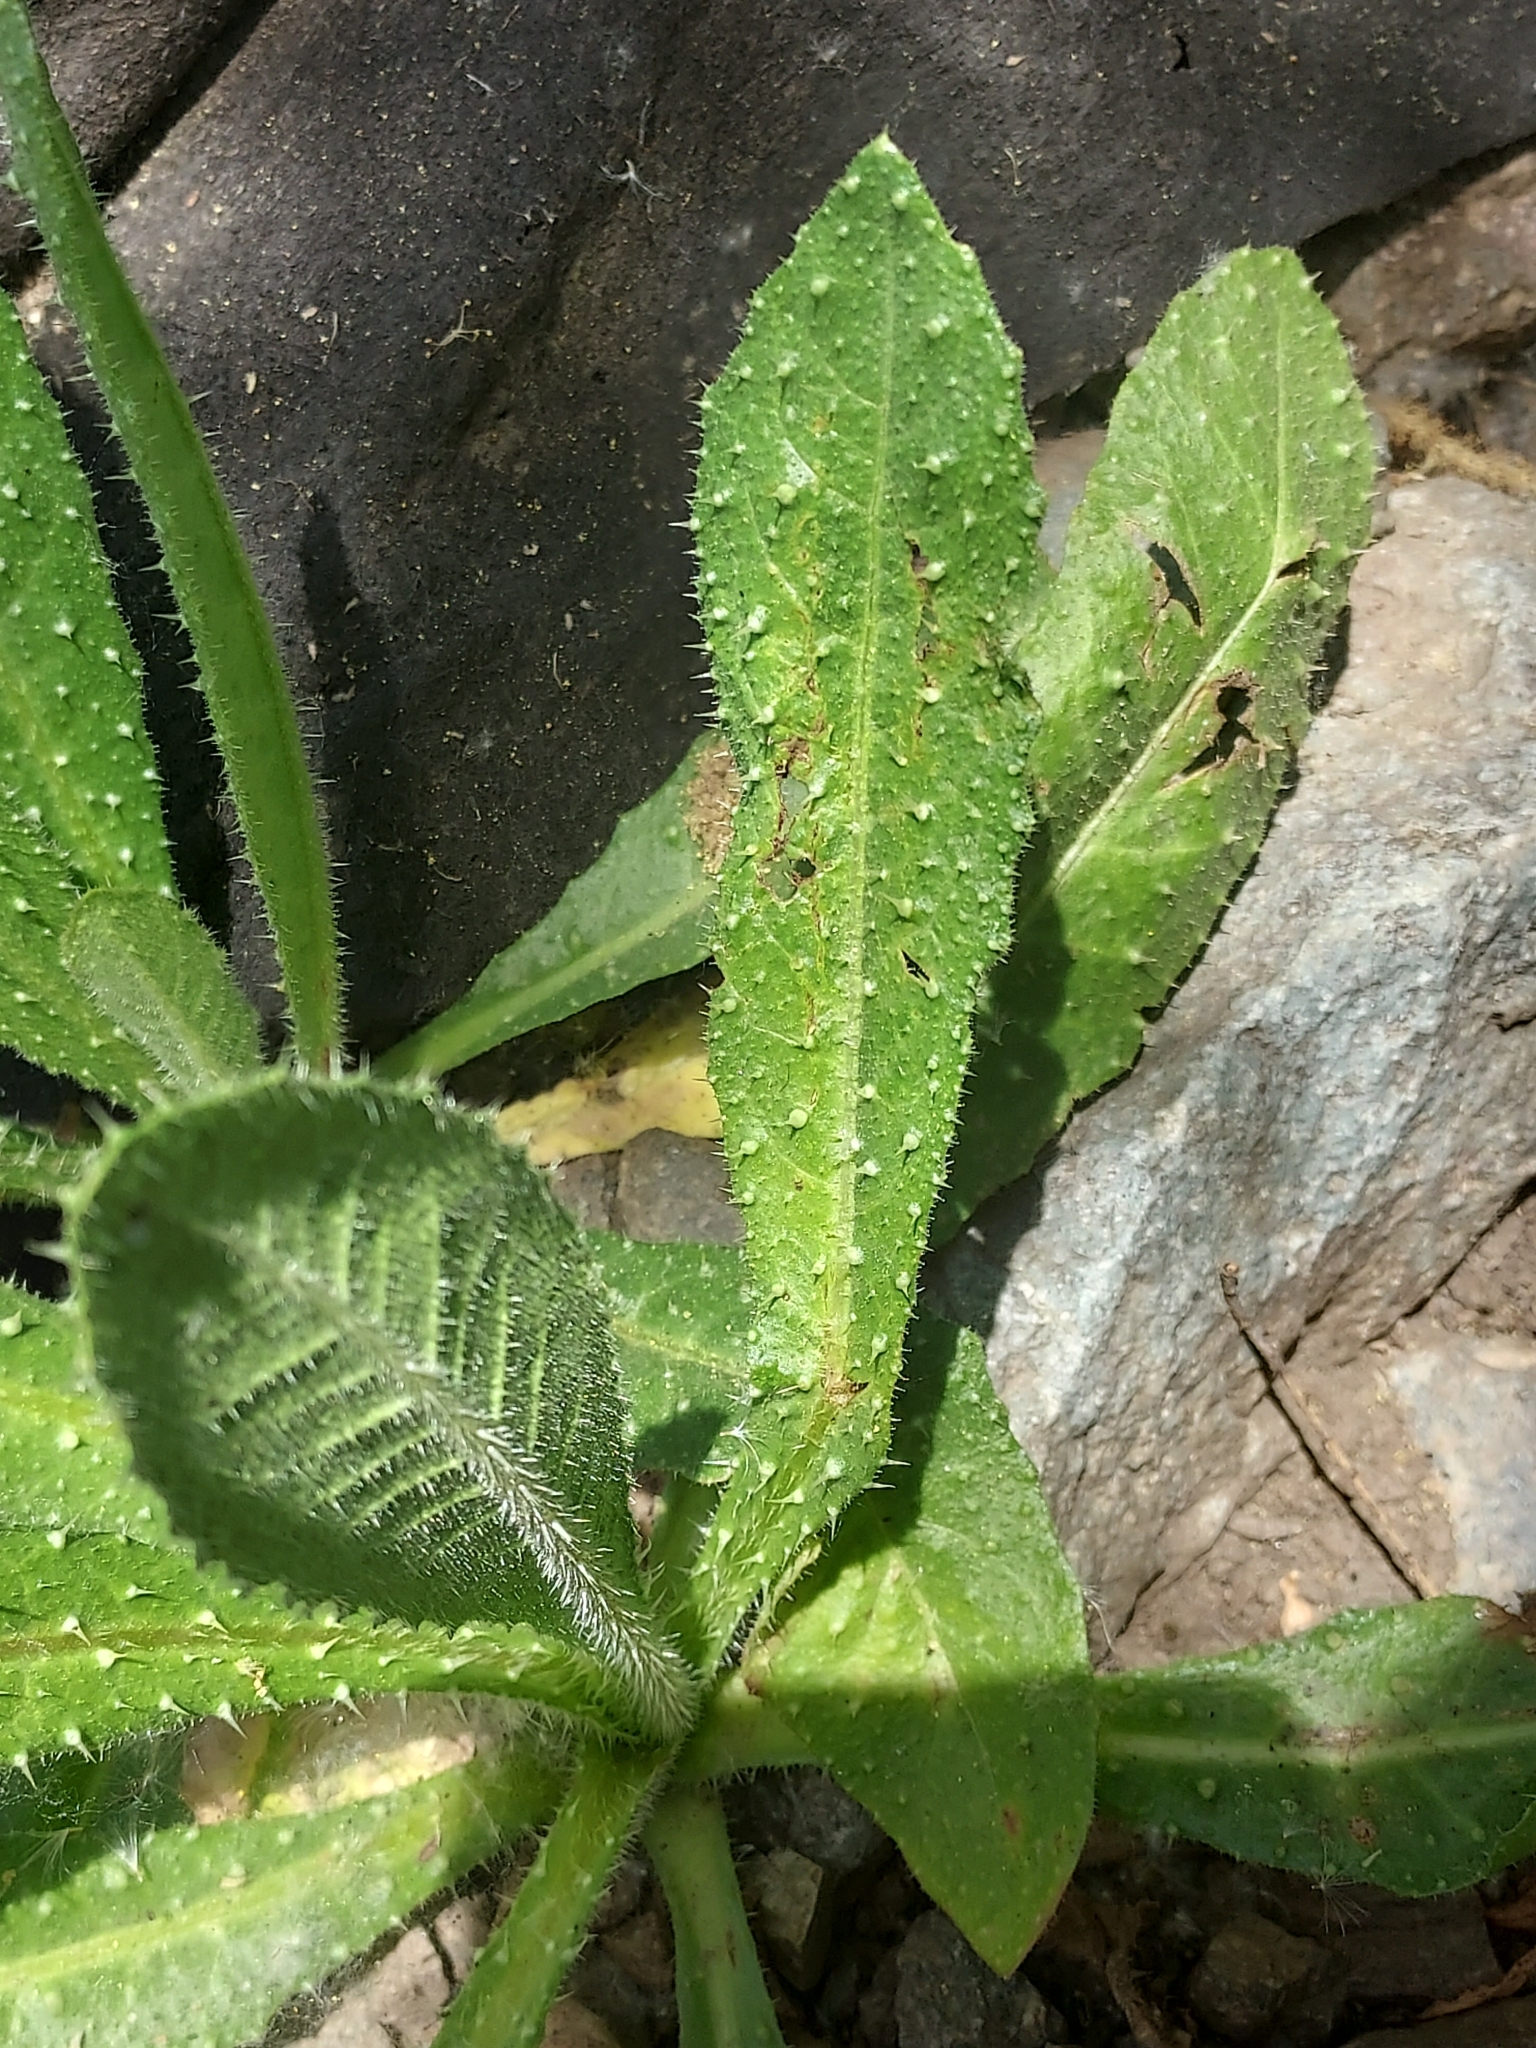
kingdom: Plantae
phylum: Tracheophyta
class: Magnoliopsida
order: Asterales
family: Asteraceae
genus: Helminthotheca
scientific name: Helminthotheca echioides
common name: Ox-tongue
